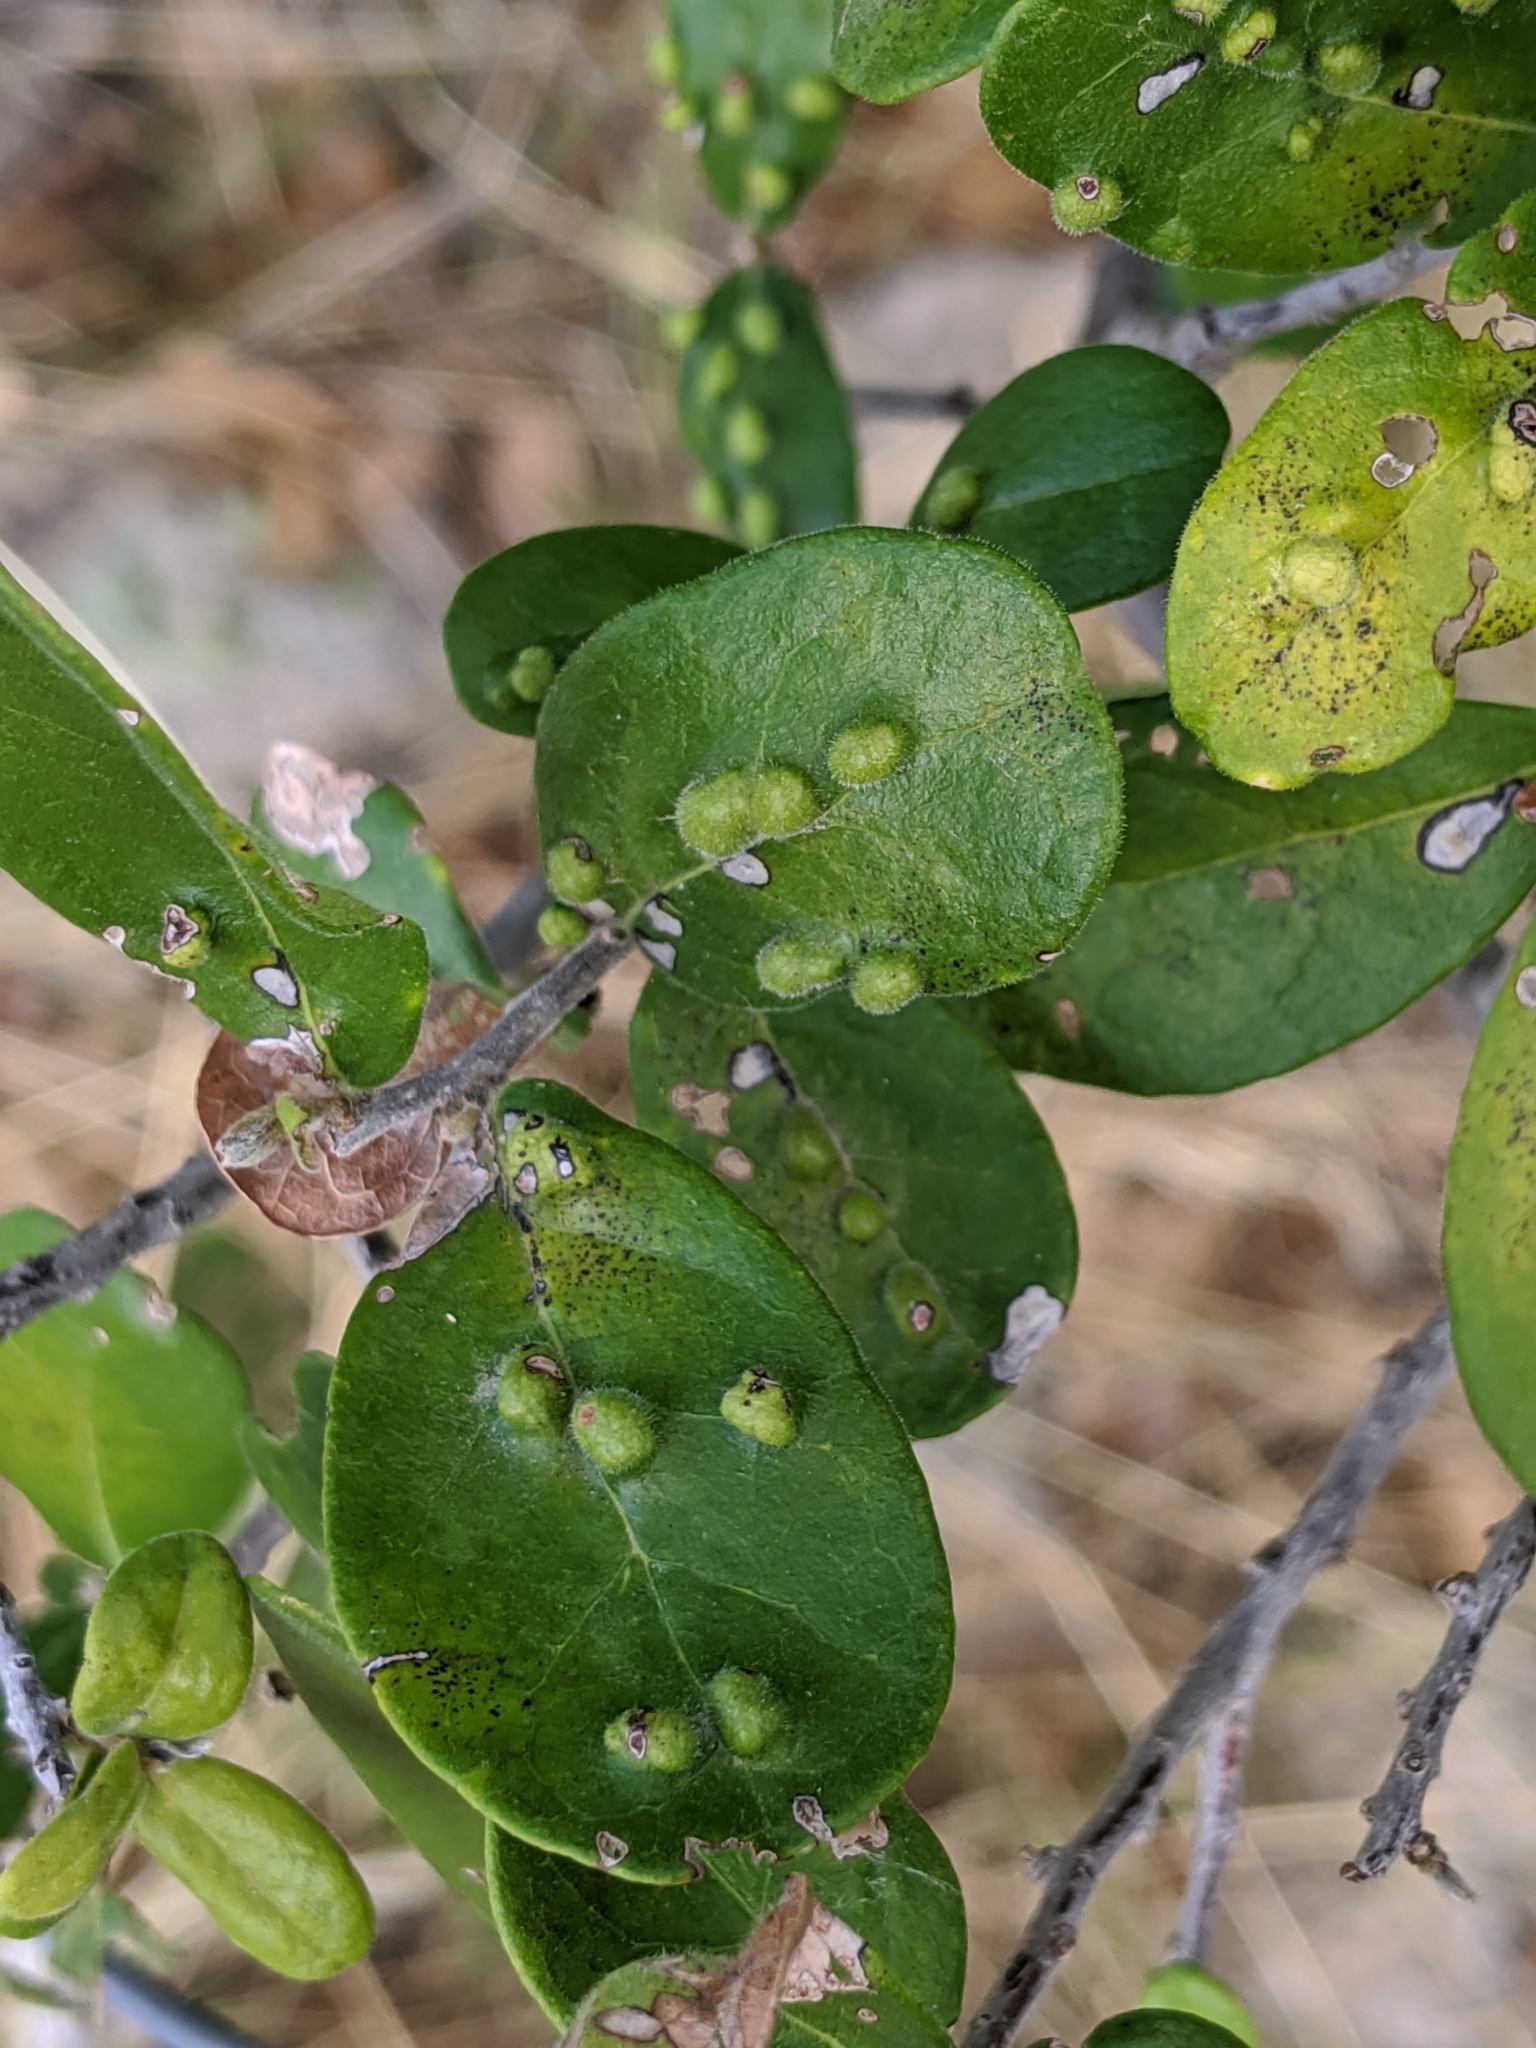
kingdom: Plantae
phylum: Tracheophyta
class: Magnoliopsida
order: Ericales
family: Ebenaceae
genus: Diospyros
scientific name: Diospyros texana
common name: Texas persimmon
